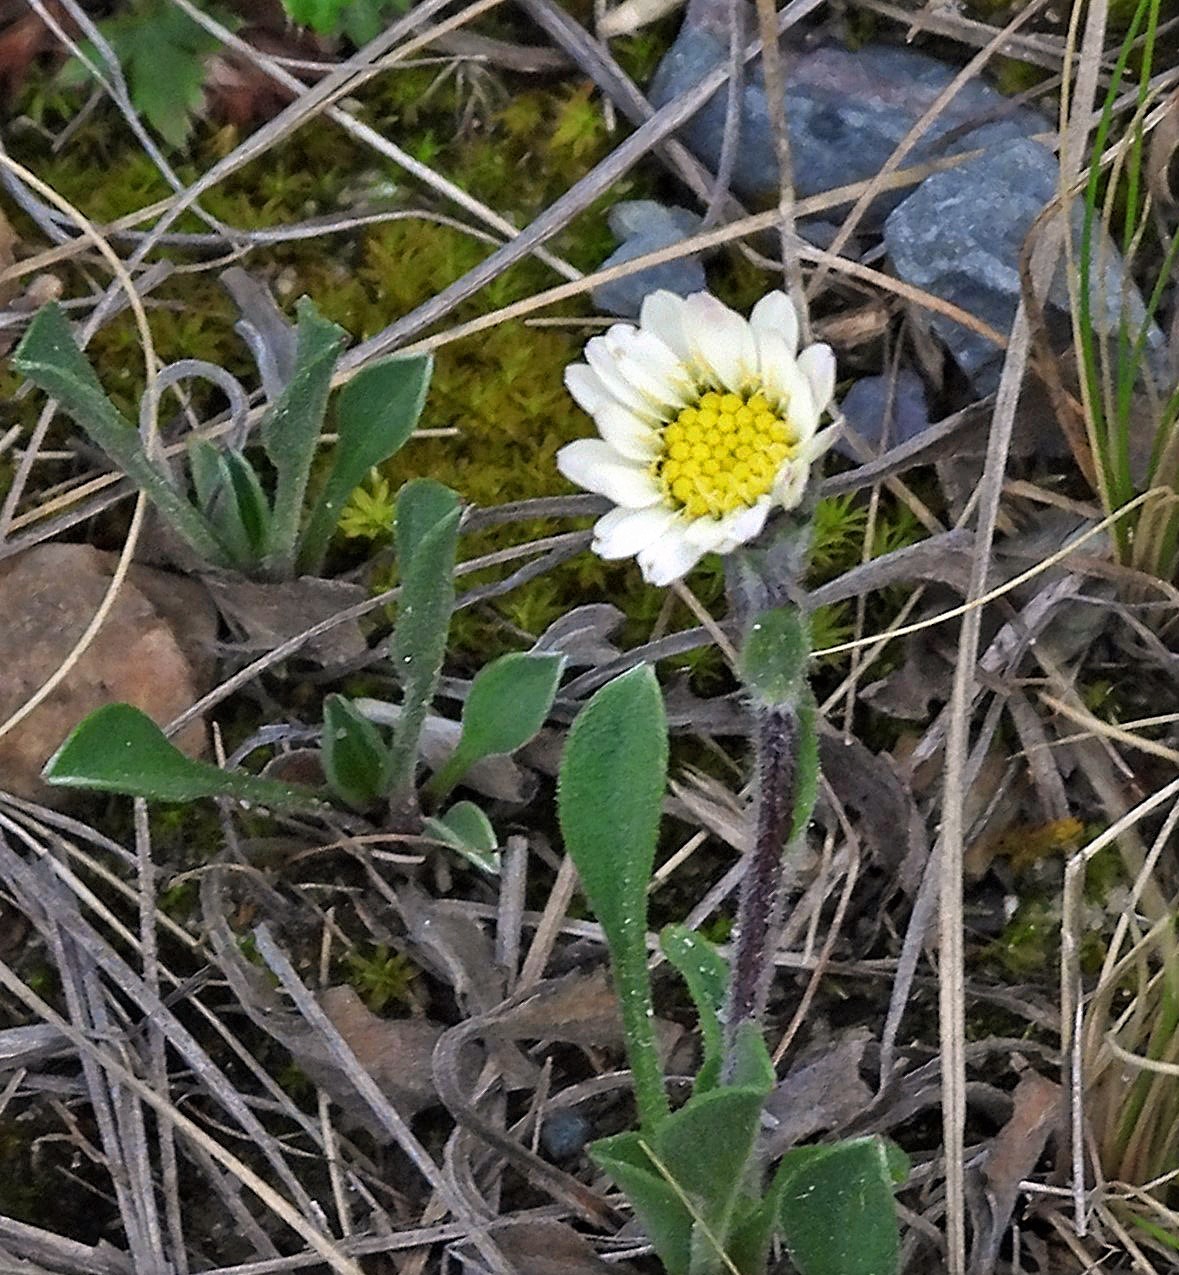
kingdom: Plantae
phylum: Tracheophyta
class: Magnoliopsida
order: Asterales
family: Asteraceae
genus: Noticastrum
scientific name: Noticastrum argenteum
